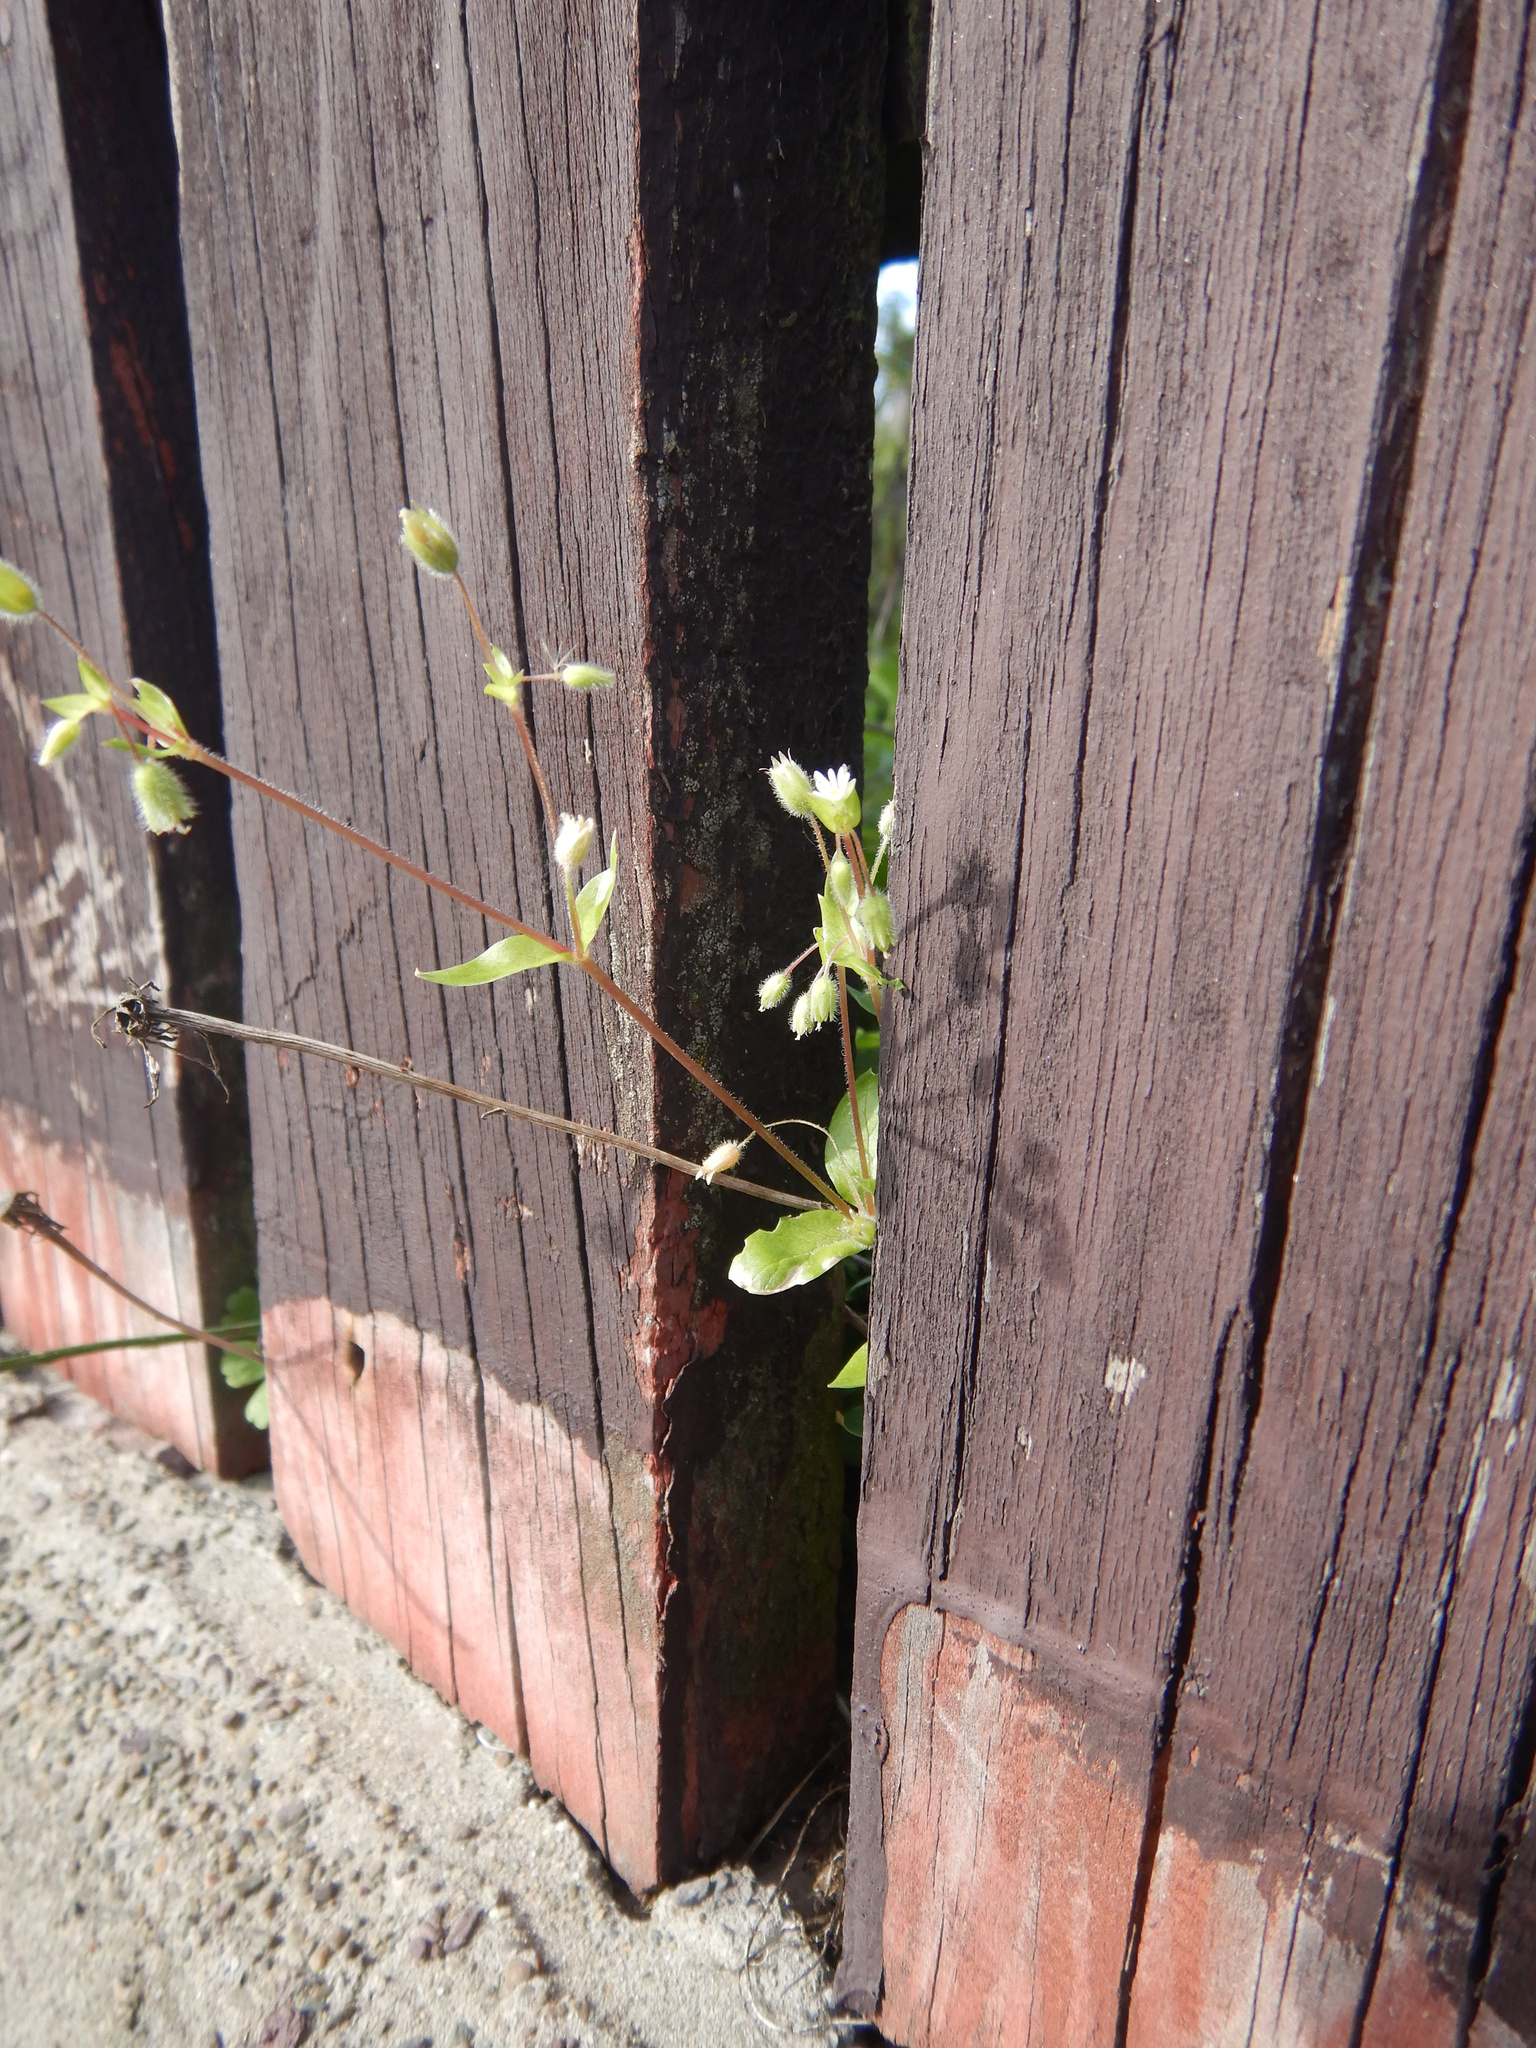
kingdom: Plantae
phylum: Tracheophyta
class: Magnoliopsida
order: Caryophyllales
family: Caryophyllaceae
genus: Stellaria
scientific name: Stellaria media
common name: Common chickweed
